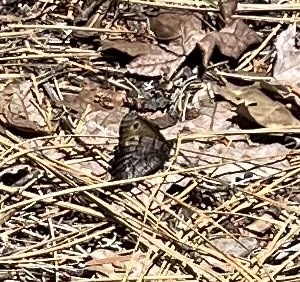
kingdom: Animalia
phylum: Arthropoda
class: Insecta
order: Lepidoptera
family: Nymphalidae
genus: Oeneis
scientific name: Oeneis nevadensis
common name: Great arctic
